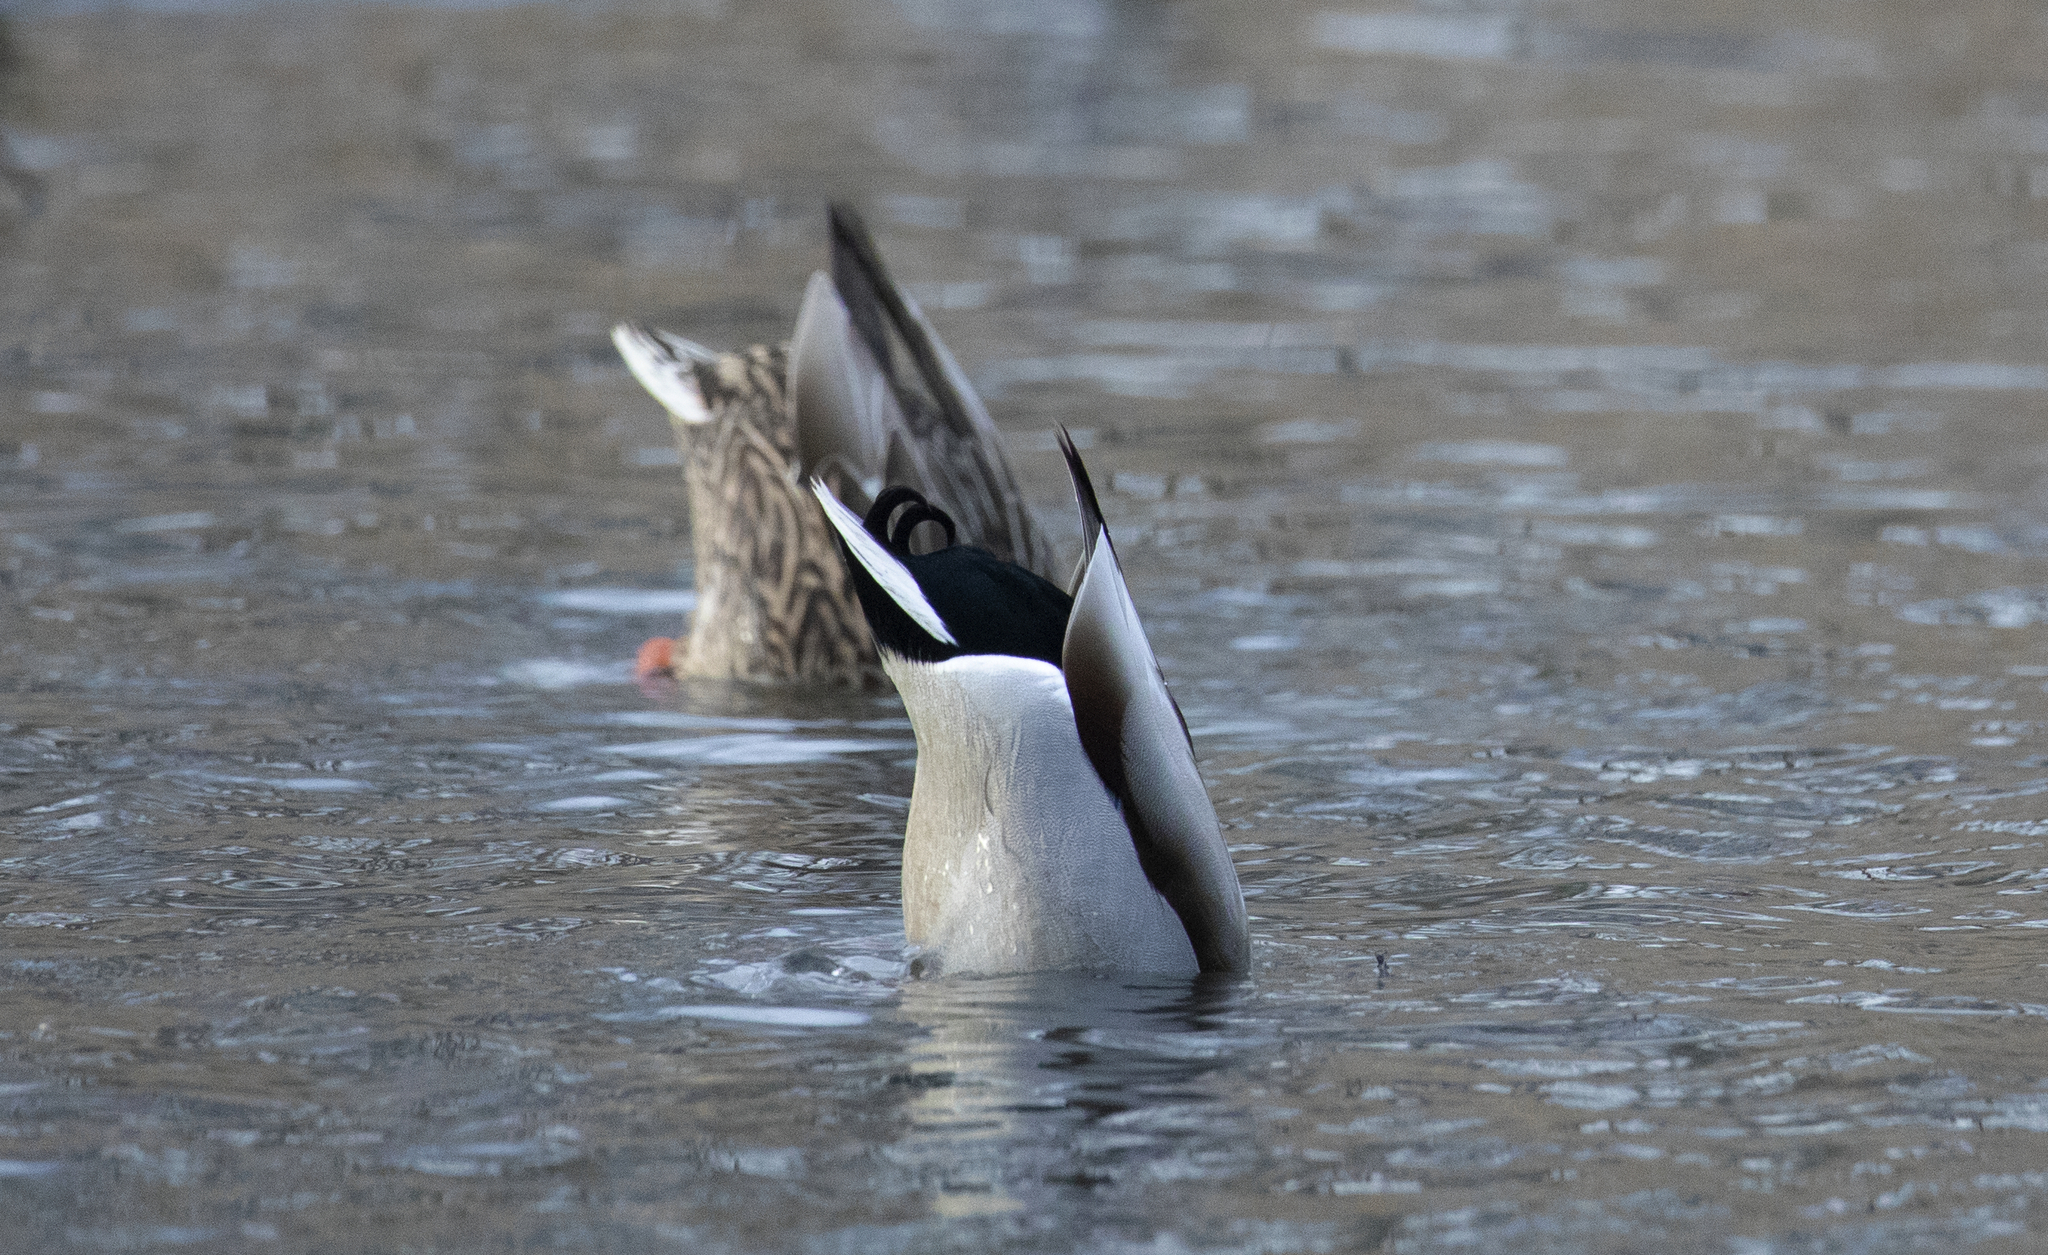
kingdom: Animalia
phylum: Chordata
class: Aves
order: Anseriformes
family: Anatidae
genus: Anas
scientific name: Anas platyrhynchos
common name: Mallard
